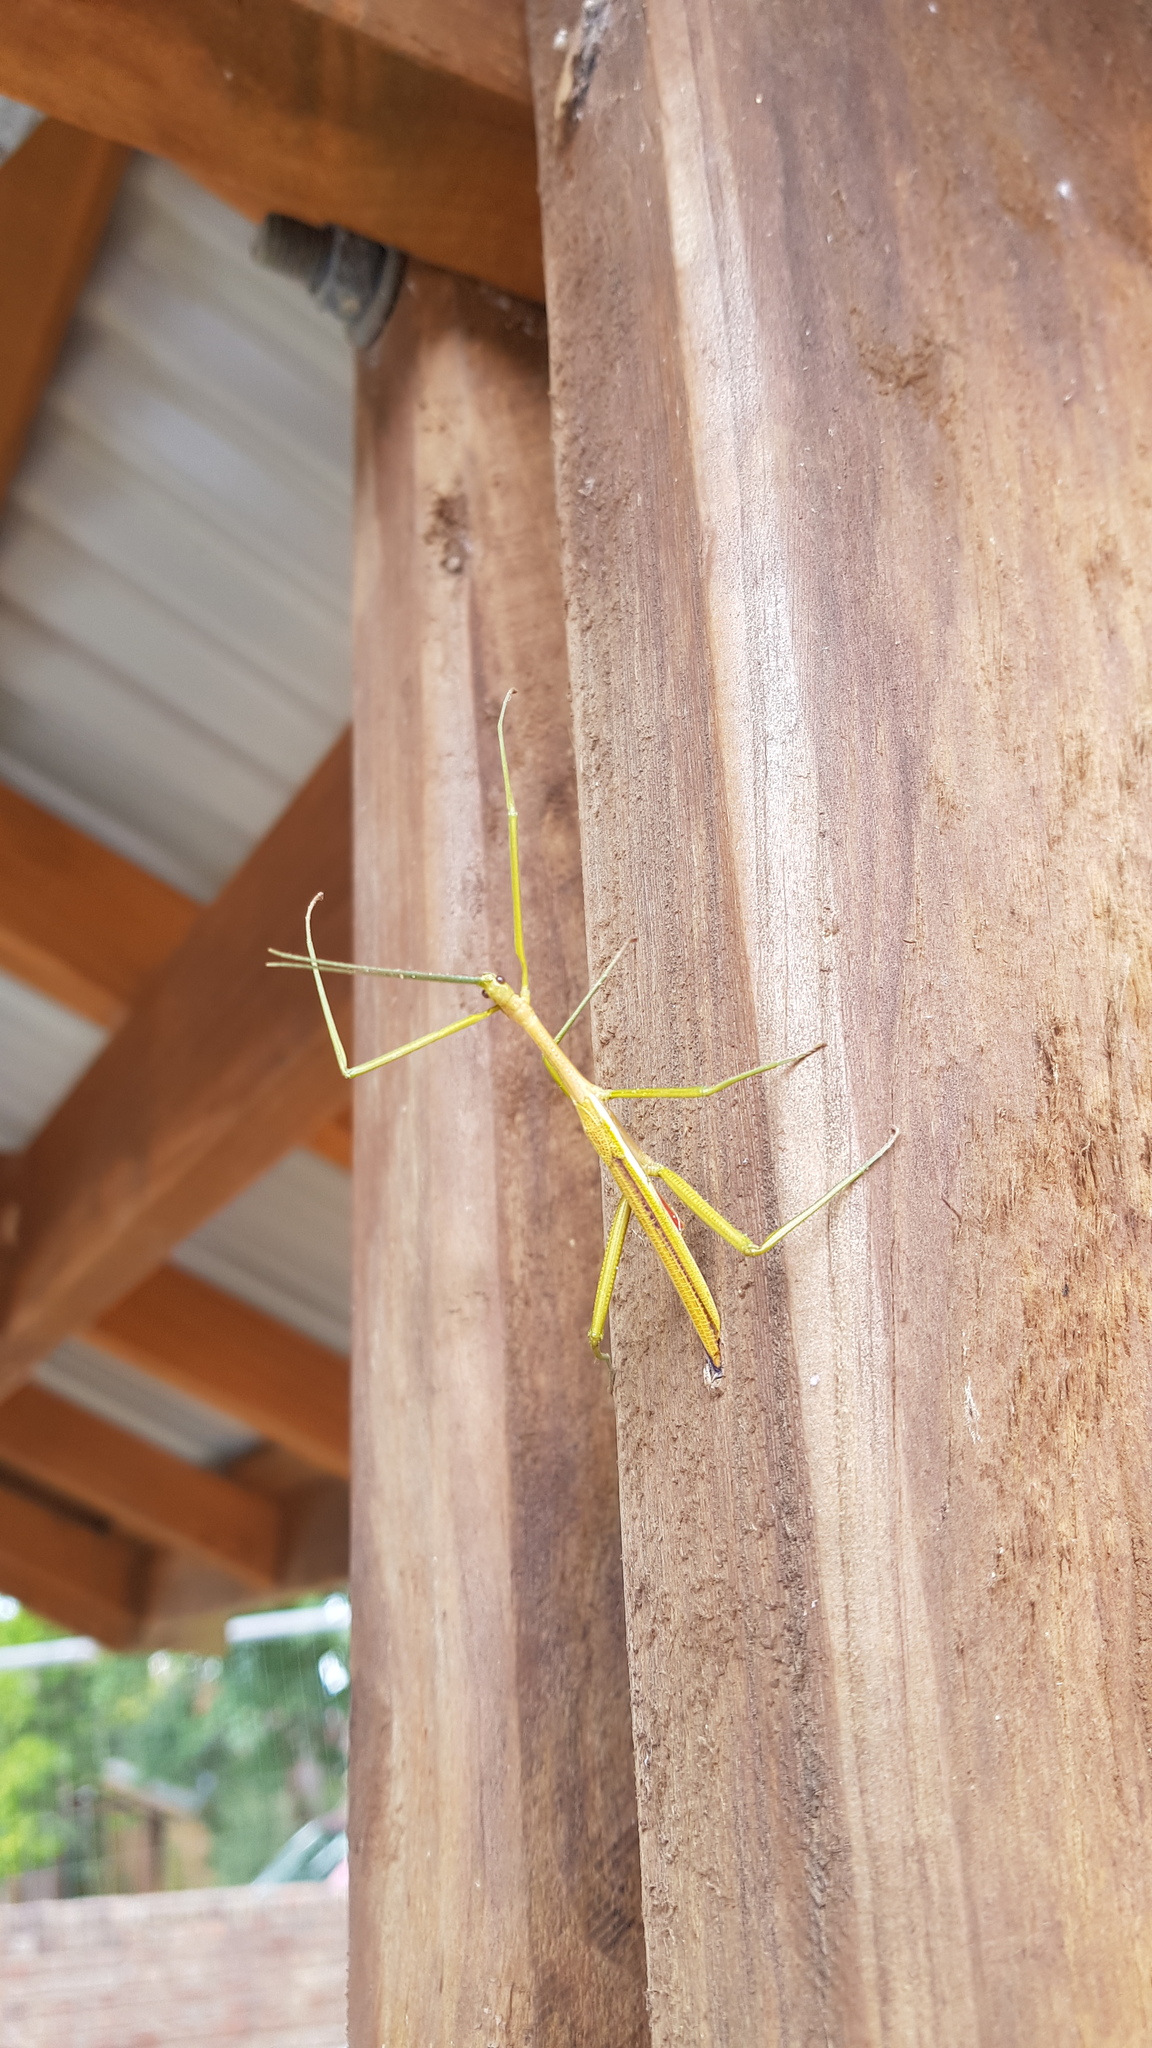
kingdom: Animalia
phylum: Arthropoda
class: Insecta
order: Phasmida
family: Phasmatidae
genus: Didymuria
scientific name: Didymuria violescens
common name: Spur-legged stick-insect
